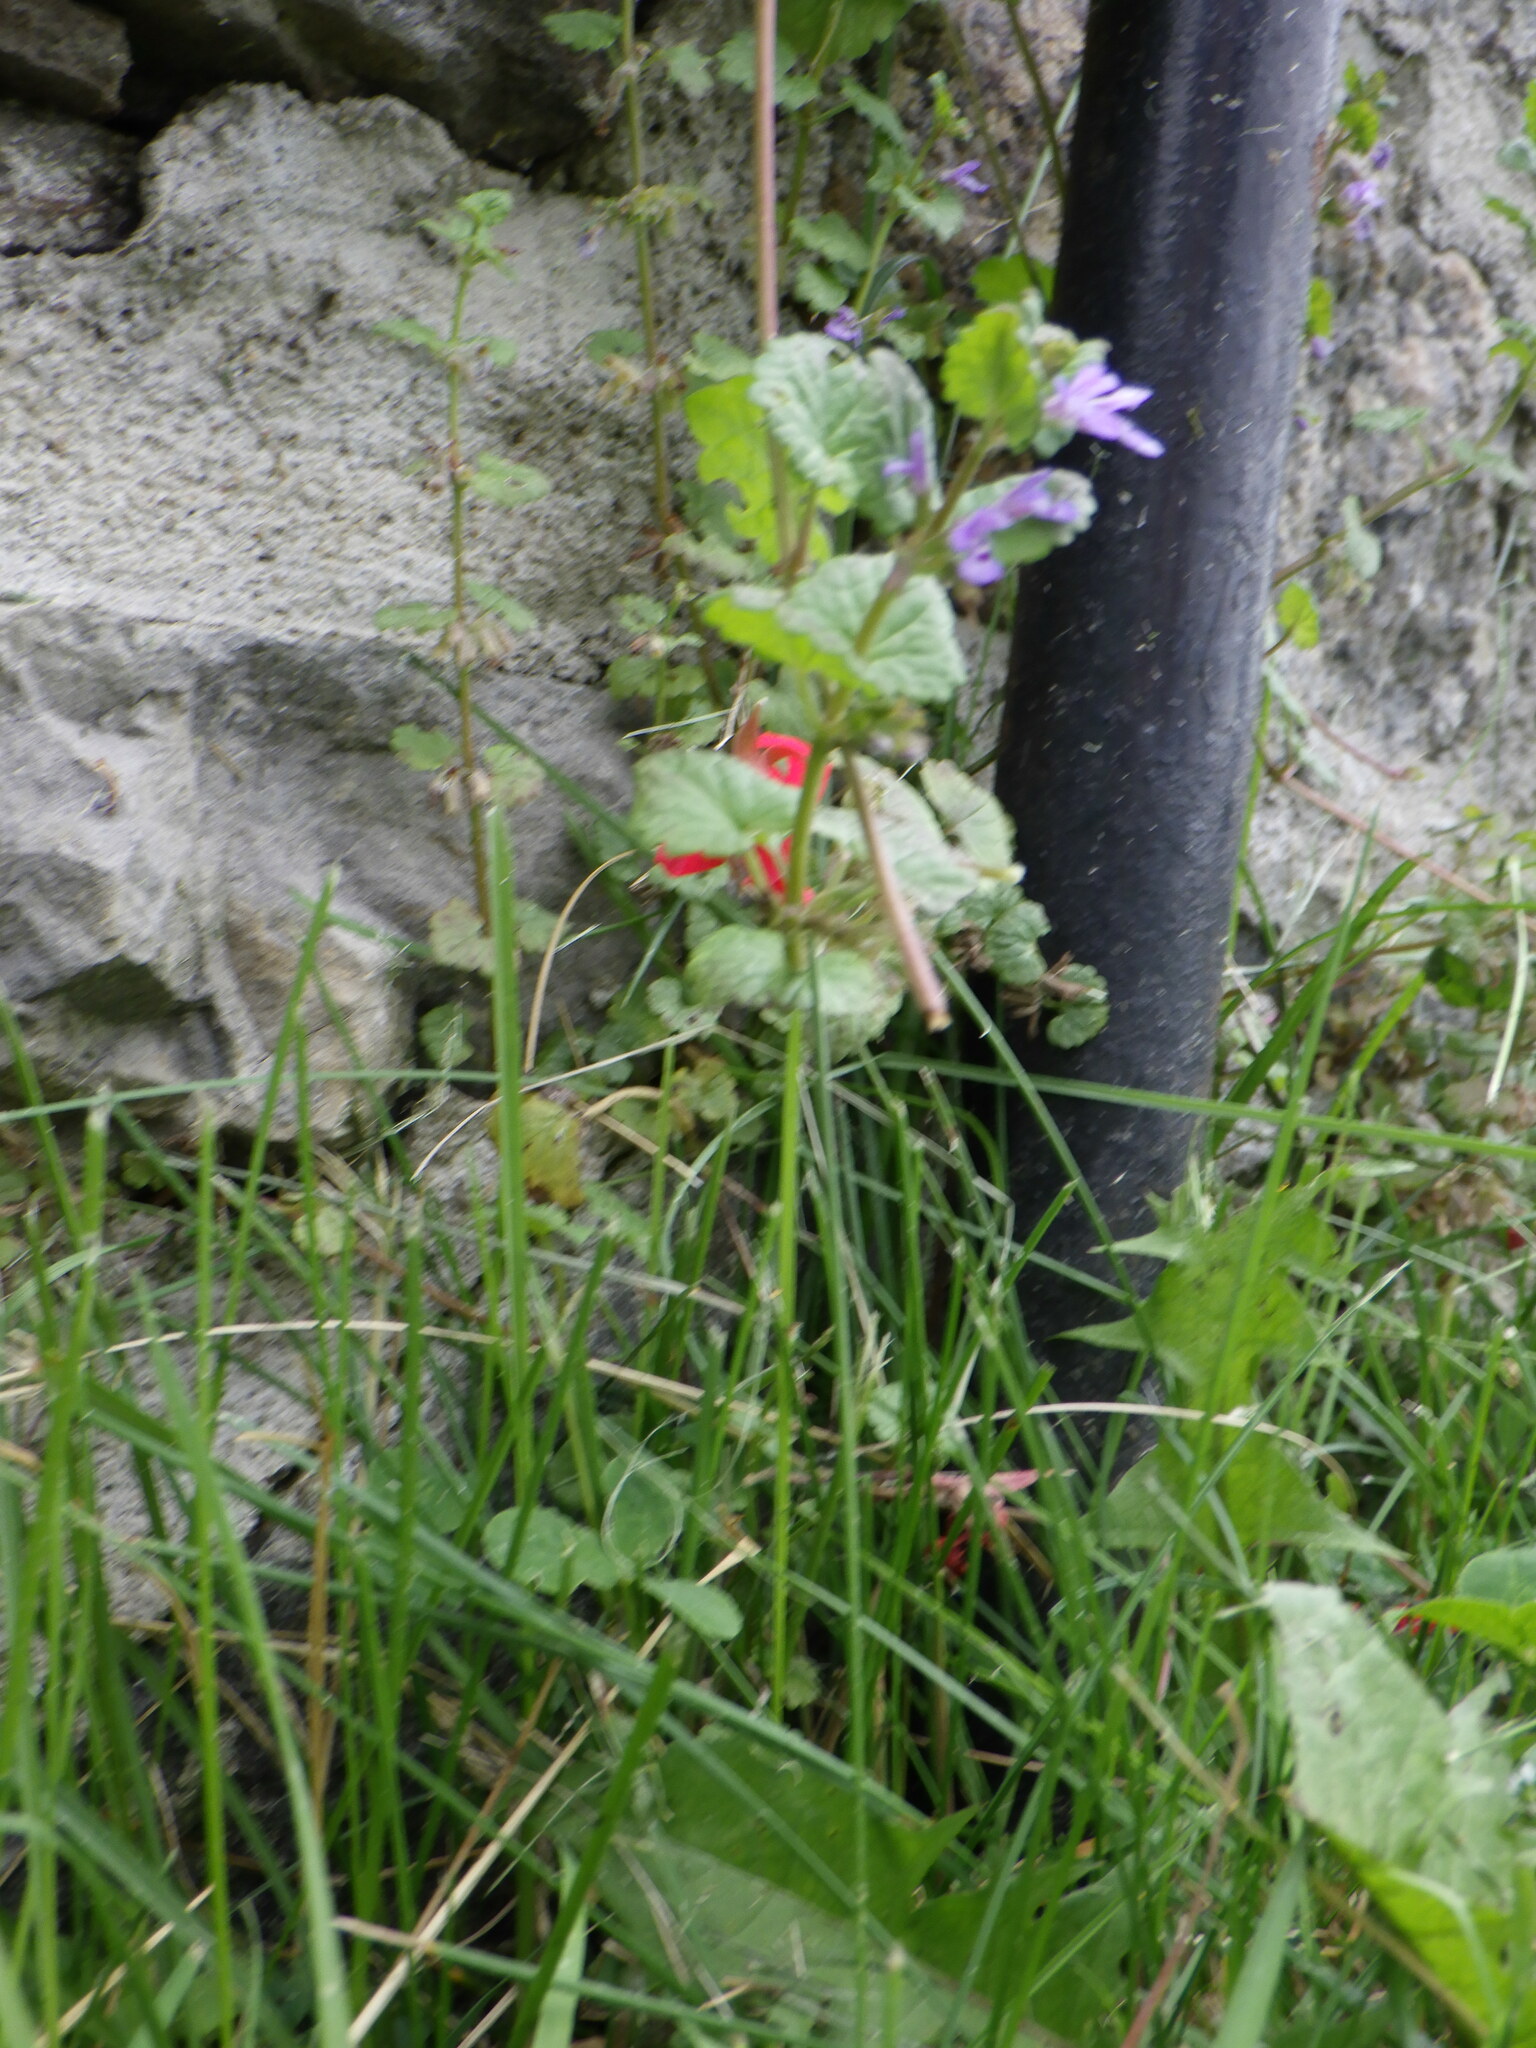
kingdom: Plantae
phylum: Tracheophyta
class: Magnoliopsida
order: Lamiales
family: Lamiaceae
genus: Glechoma
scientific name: Glechoma hederacea
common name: Ground ivy
